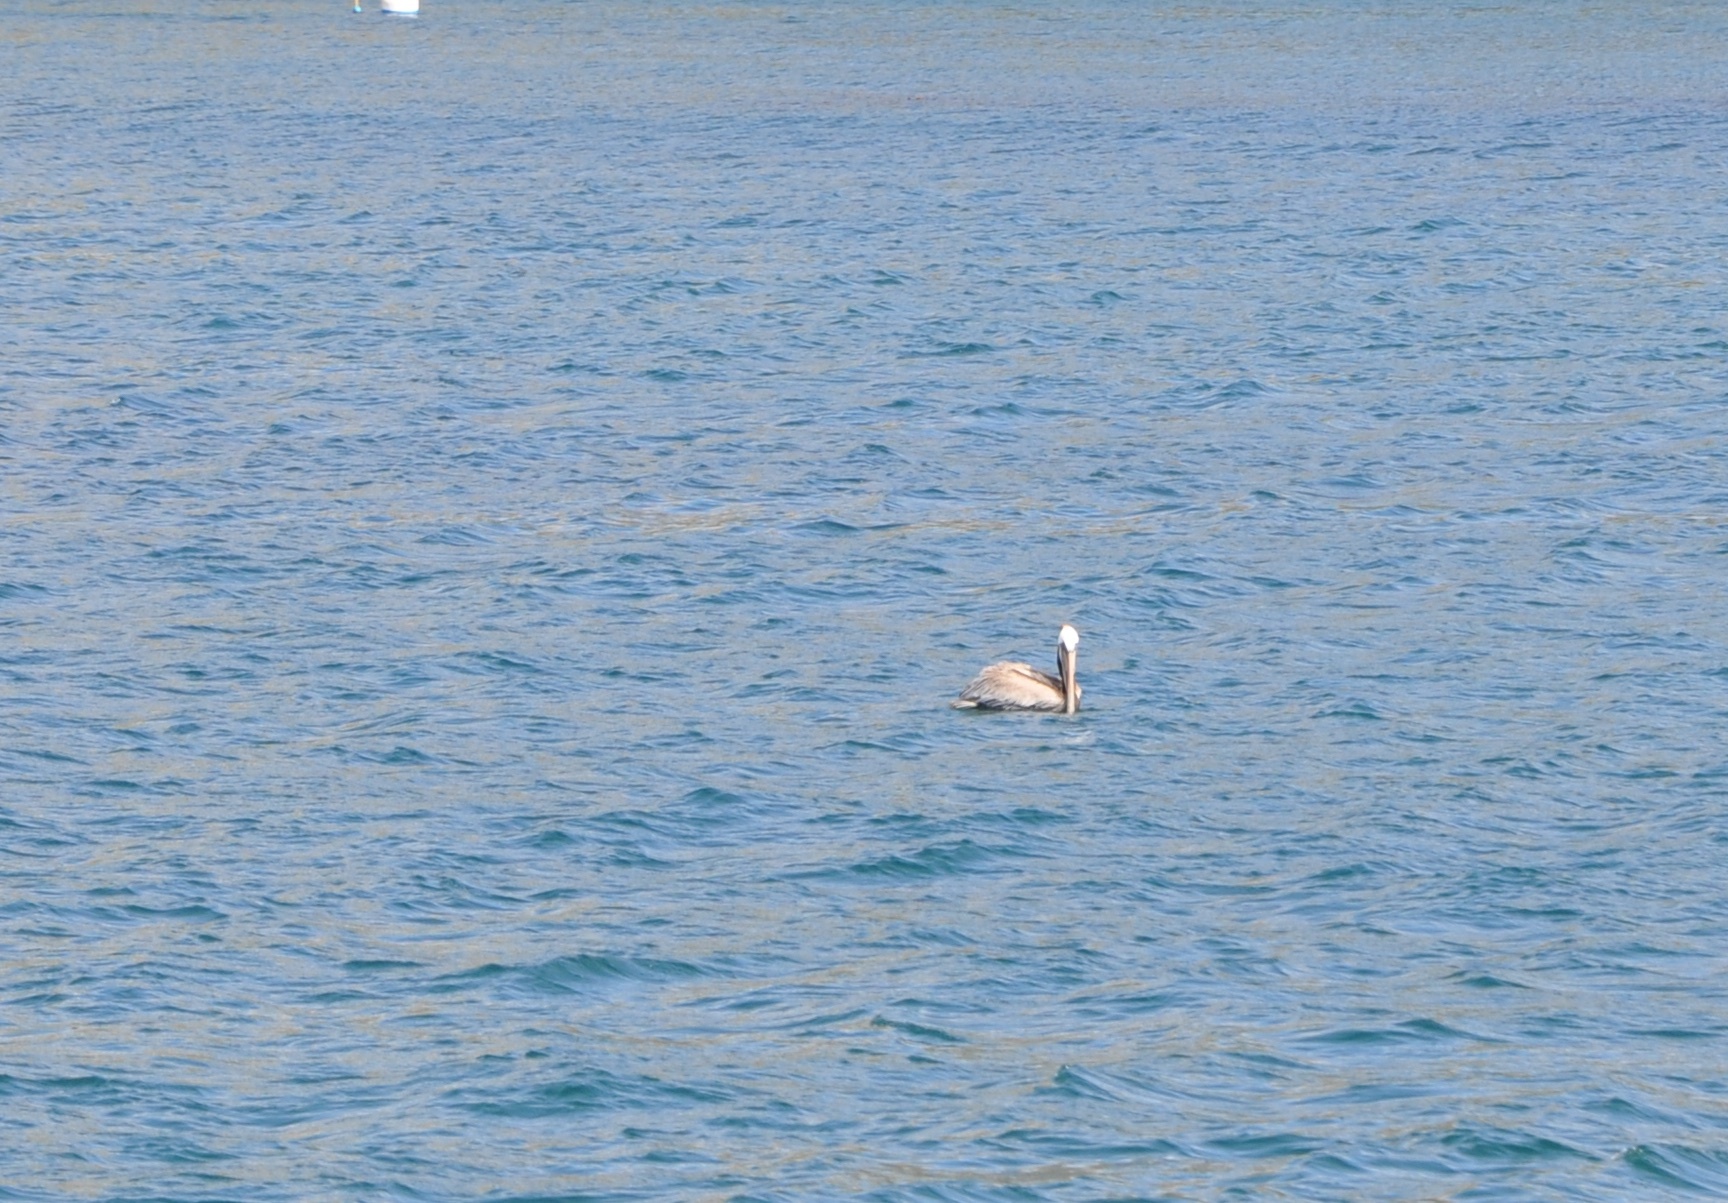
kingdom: Animalia
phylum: Chordata
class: Aves
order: Pelecaniformes
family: Pelecanidae
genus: Pelecanus
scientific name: Pelecanus occidentalis
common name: Brown pelican
